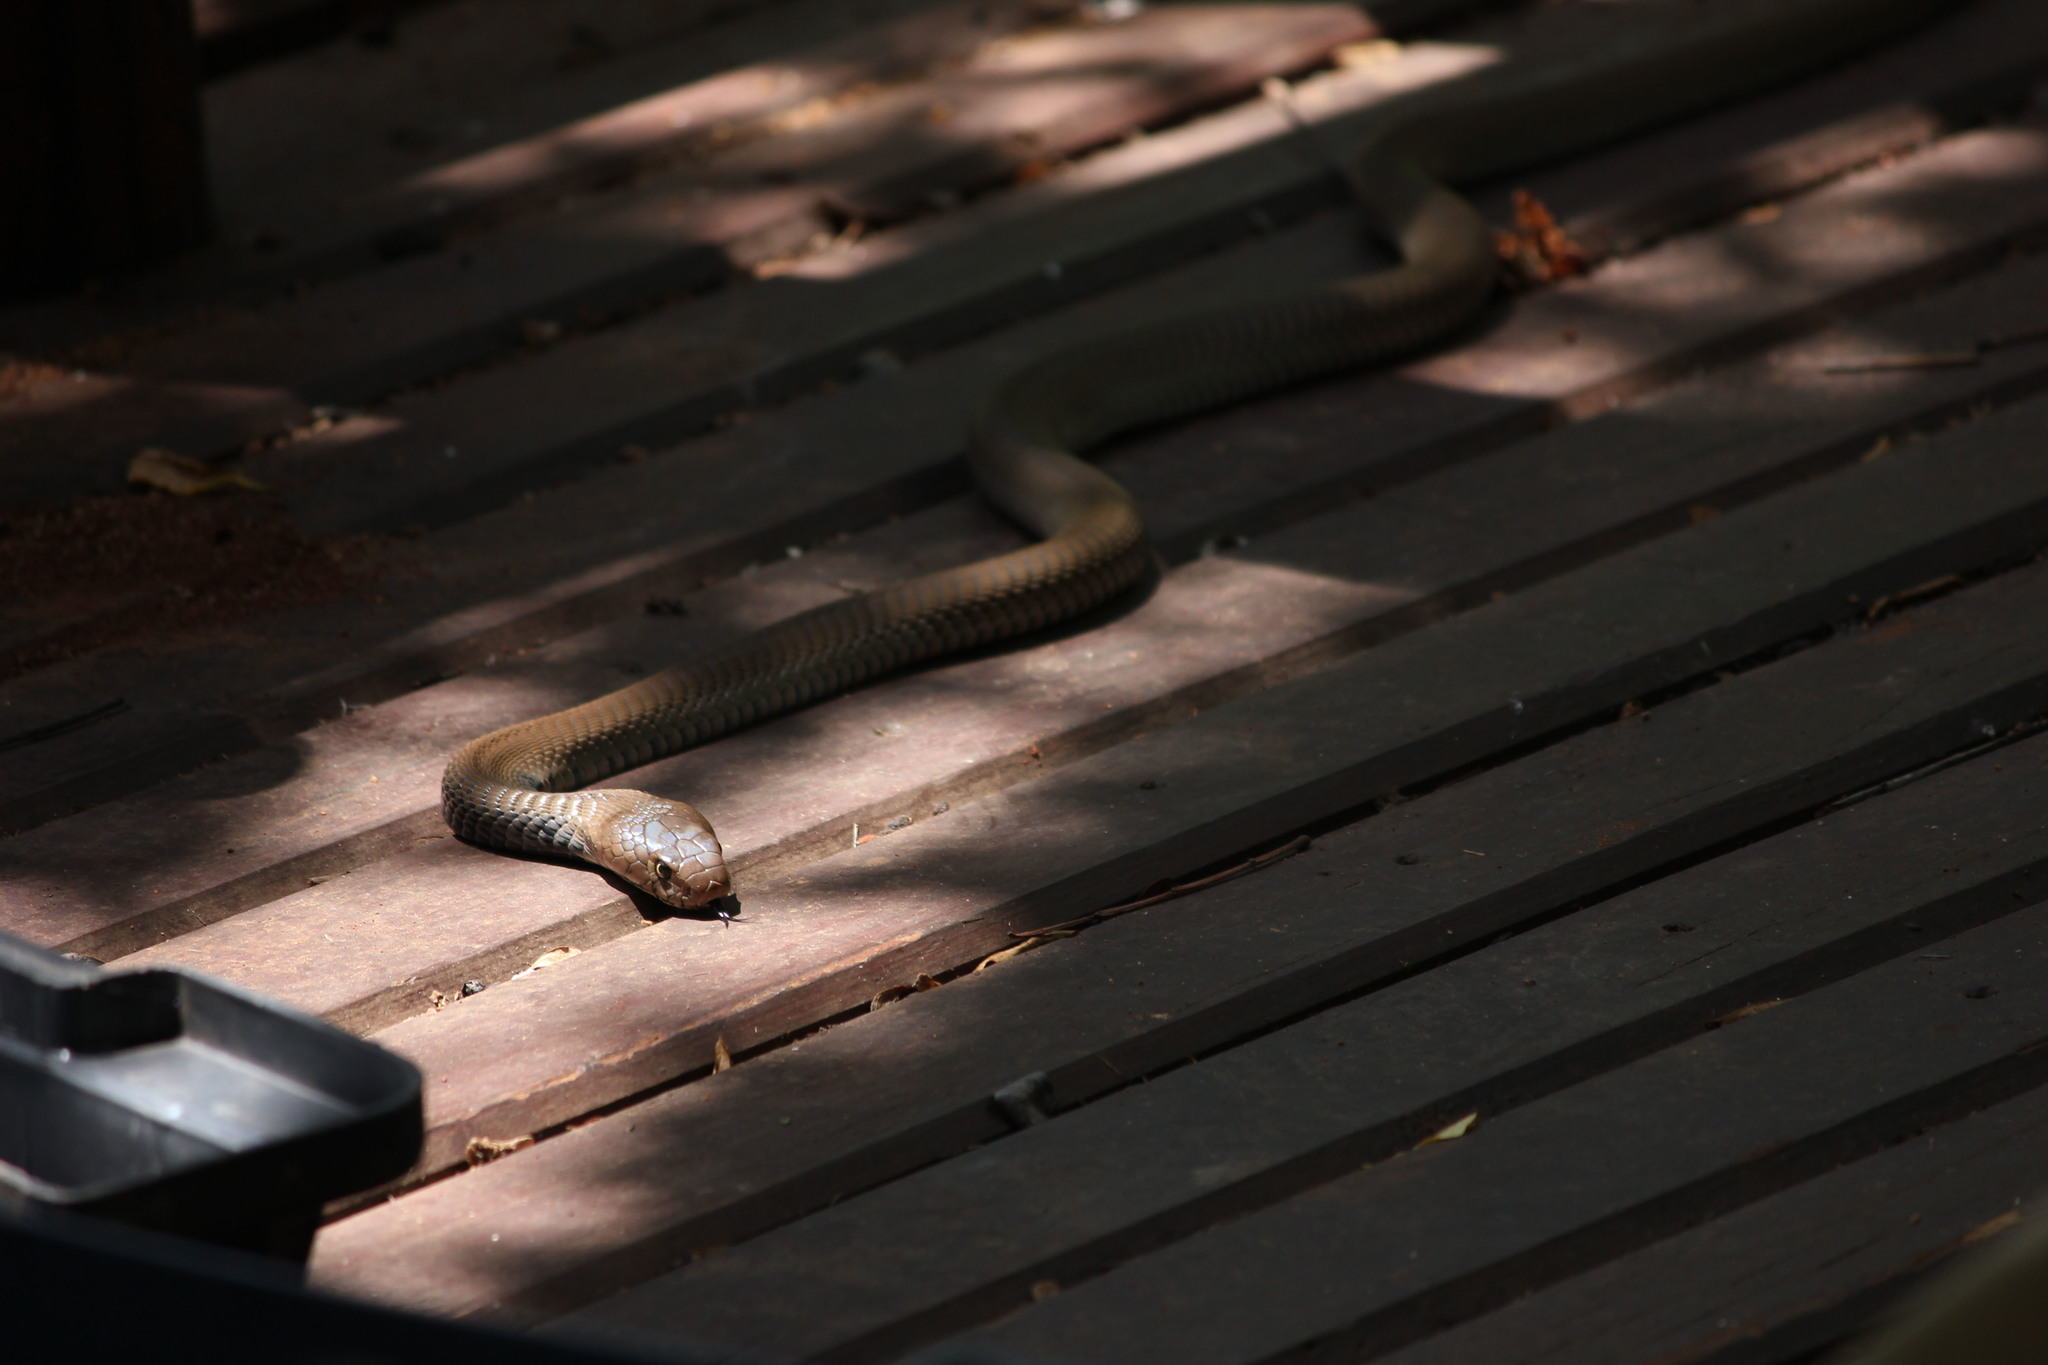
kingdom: Animalia
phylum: Chordata
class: Squamata
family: Elapidae
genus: Naja
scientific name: Naja mossambica
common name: Mozambique spitting cobra
